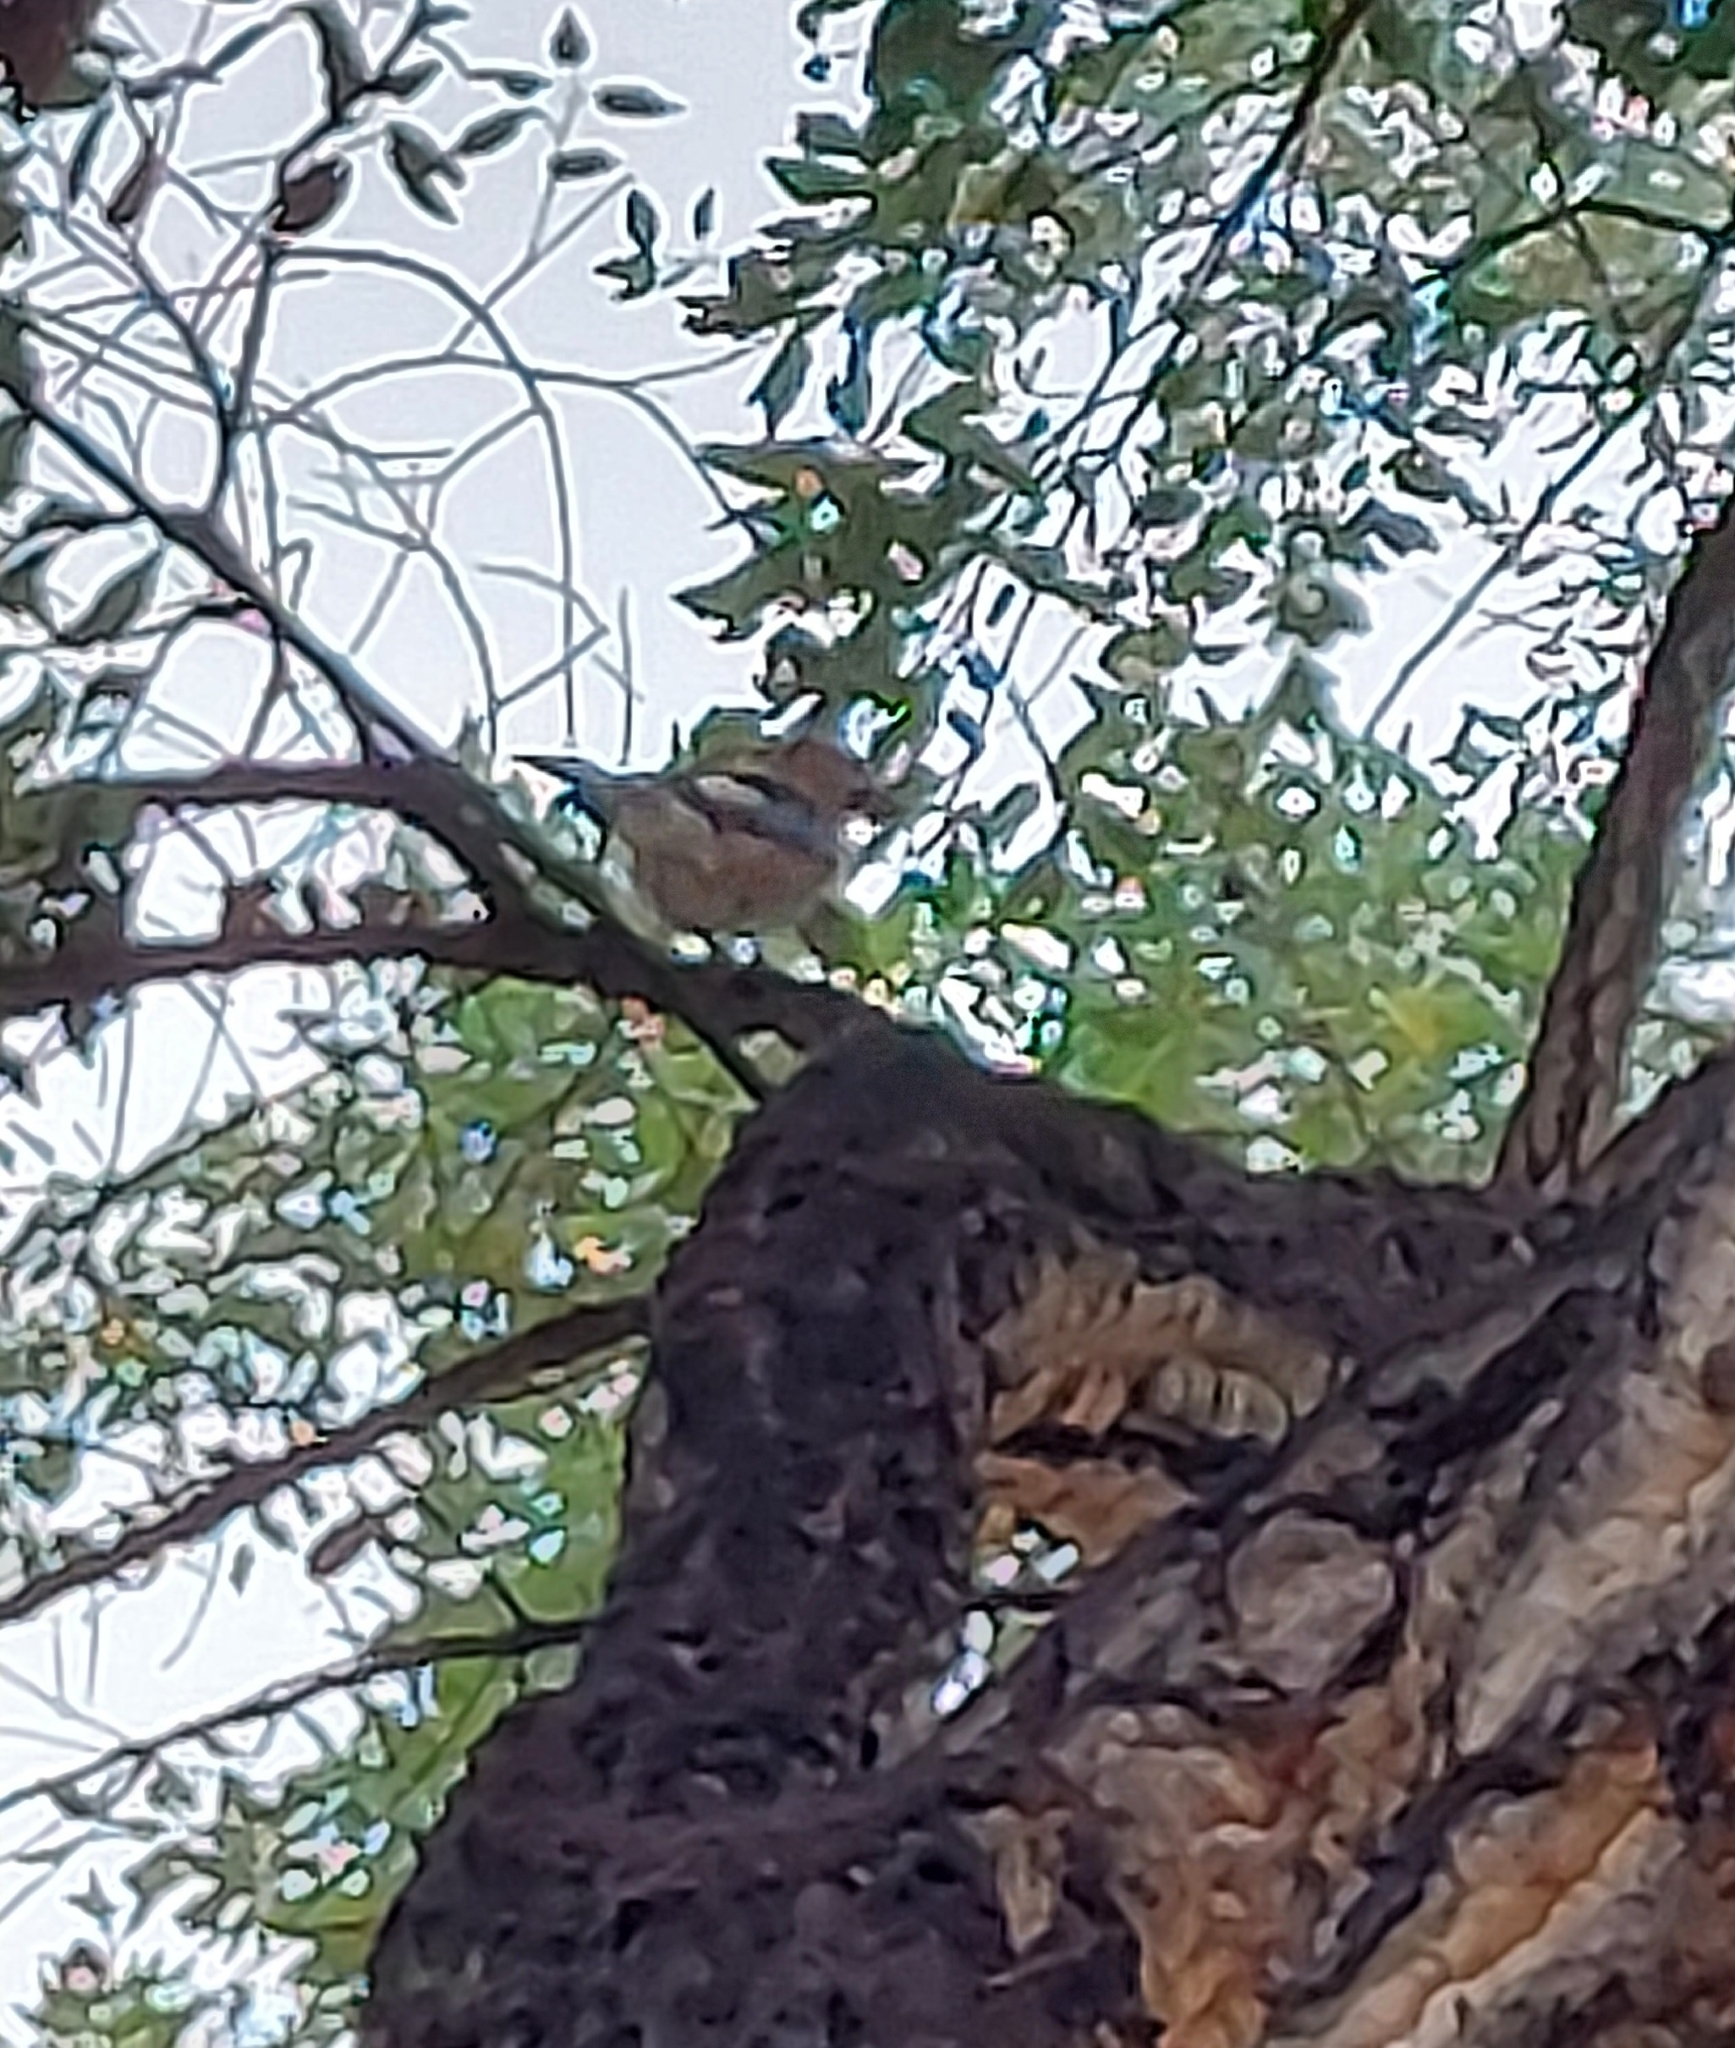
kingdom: Animalia
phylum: Chordata
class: Aves
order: Passeriformes
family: Corvidae
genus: Garrulus
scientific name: Garrulus glandarius
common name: Eurasian jay
